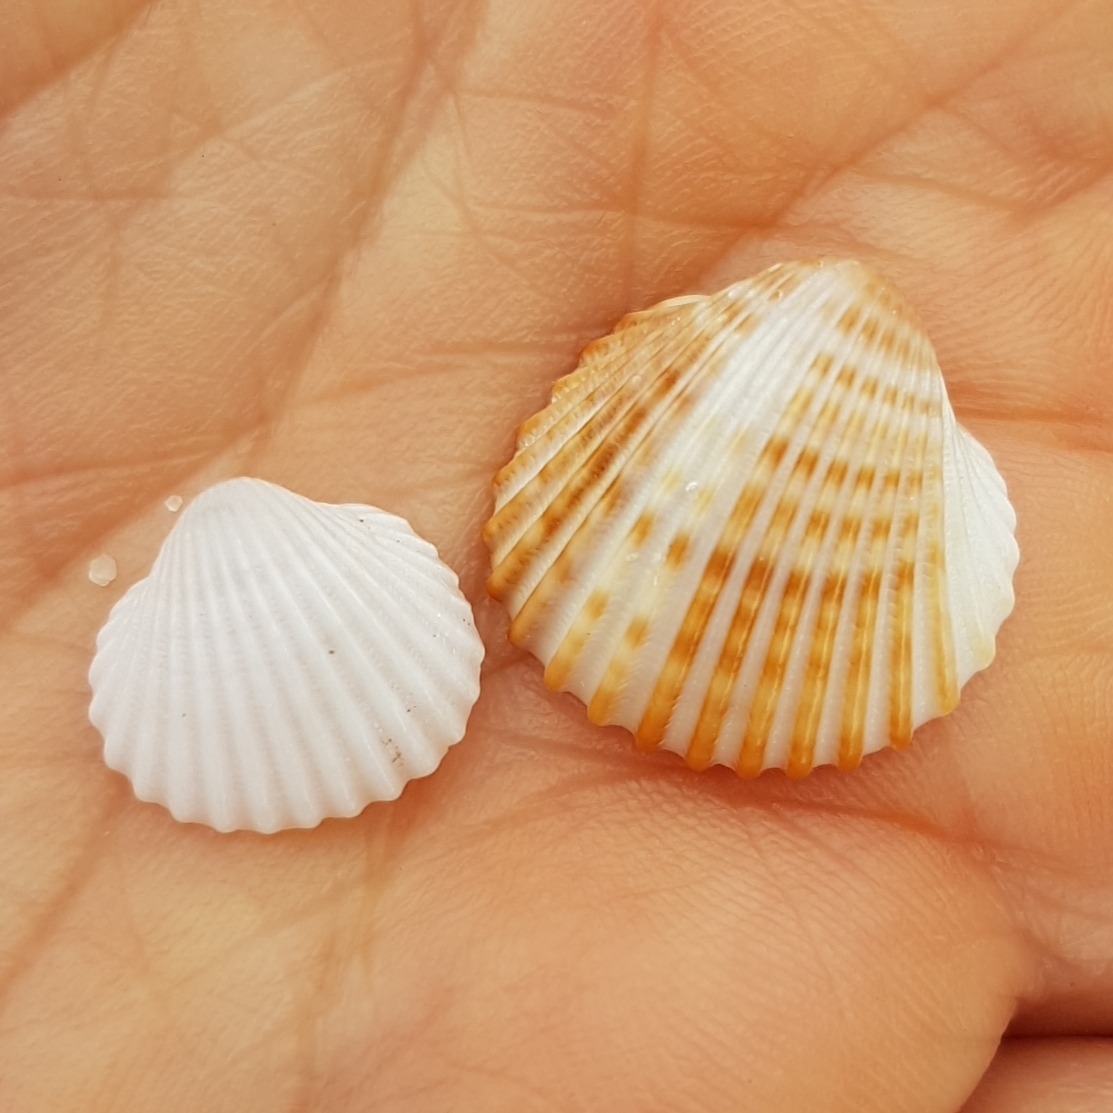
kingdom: Animalia
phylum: Mollusca
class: Bivalvia
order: Cardiida
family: Cardiidae
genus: Acanthocardia
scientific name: Acanthocardia tuberculata
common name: Rough cockle
